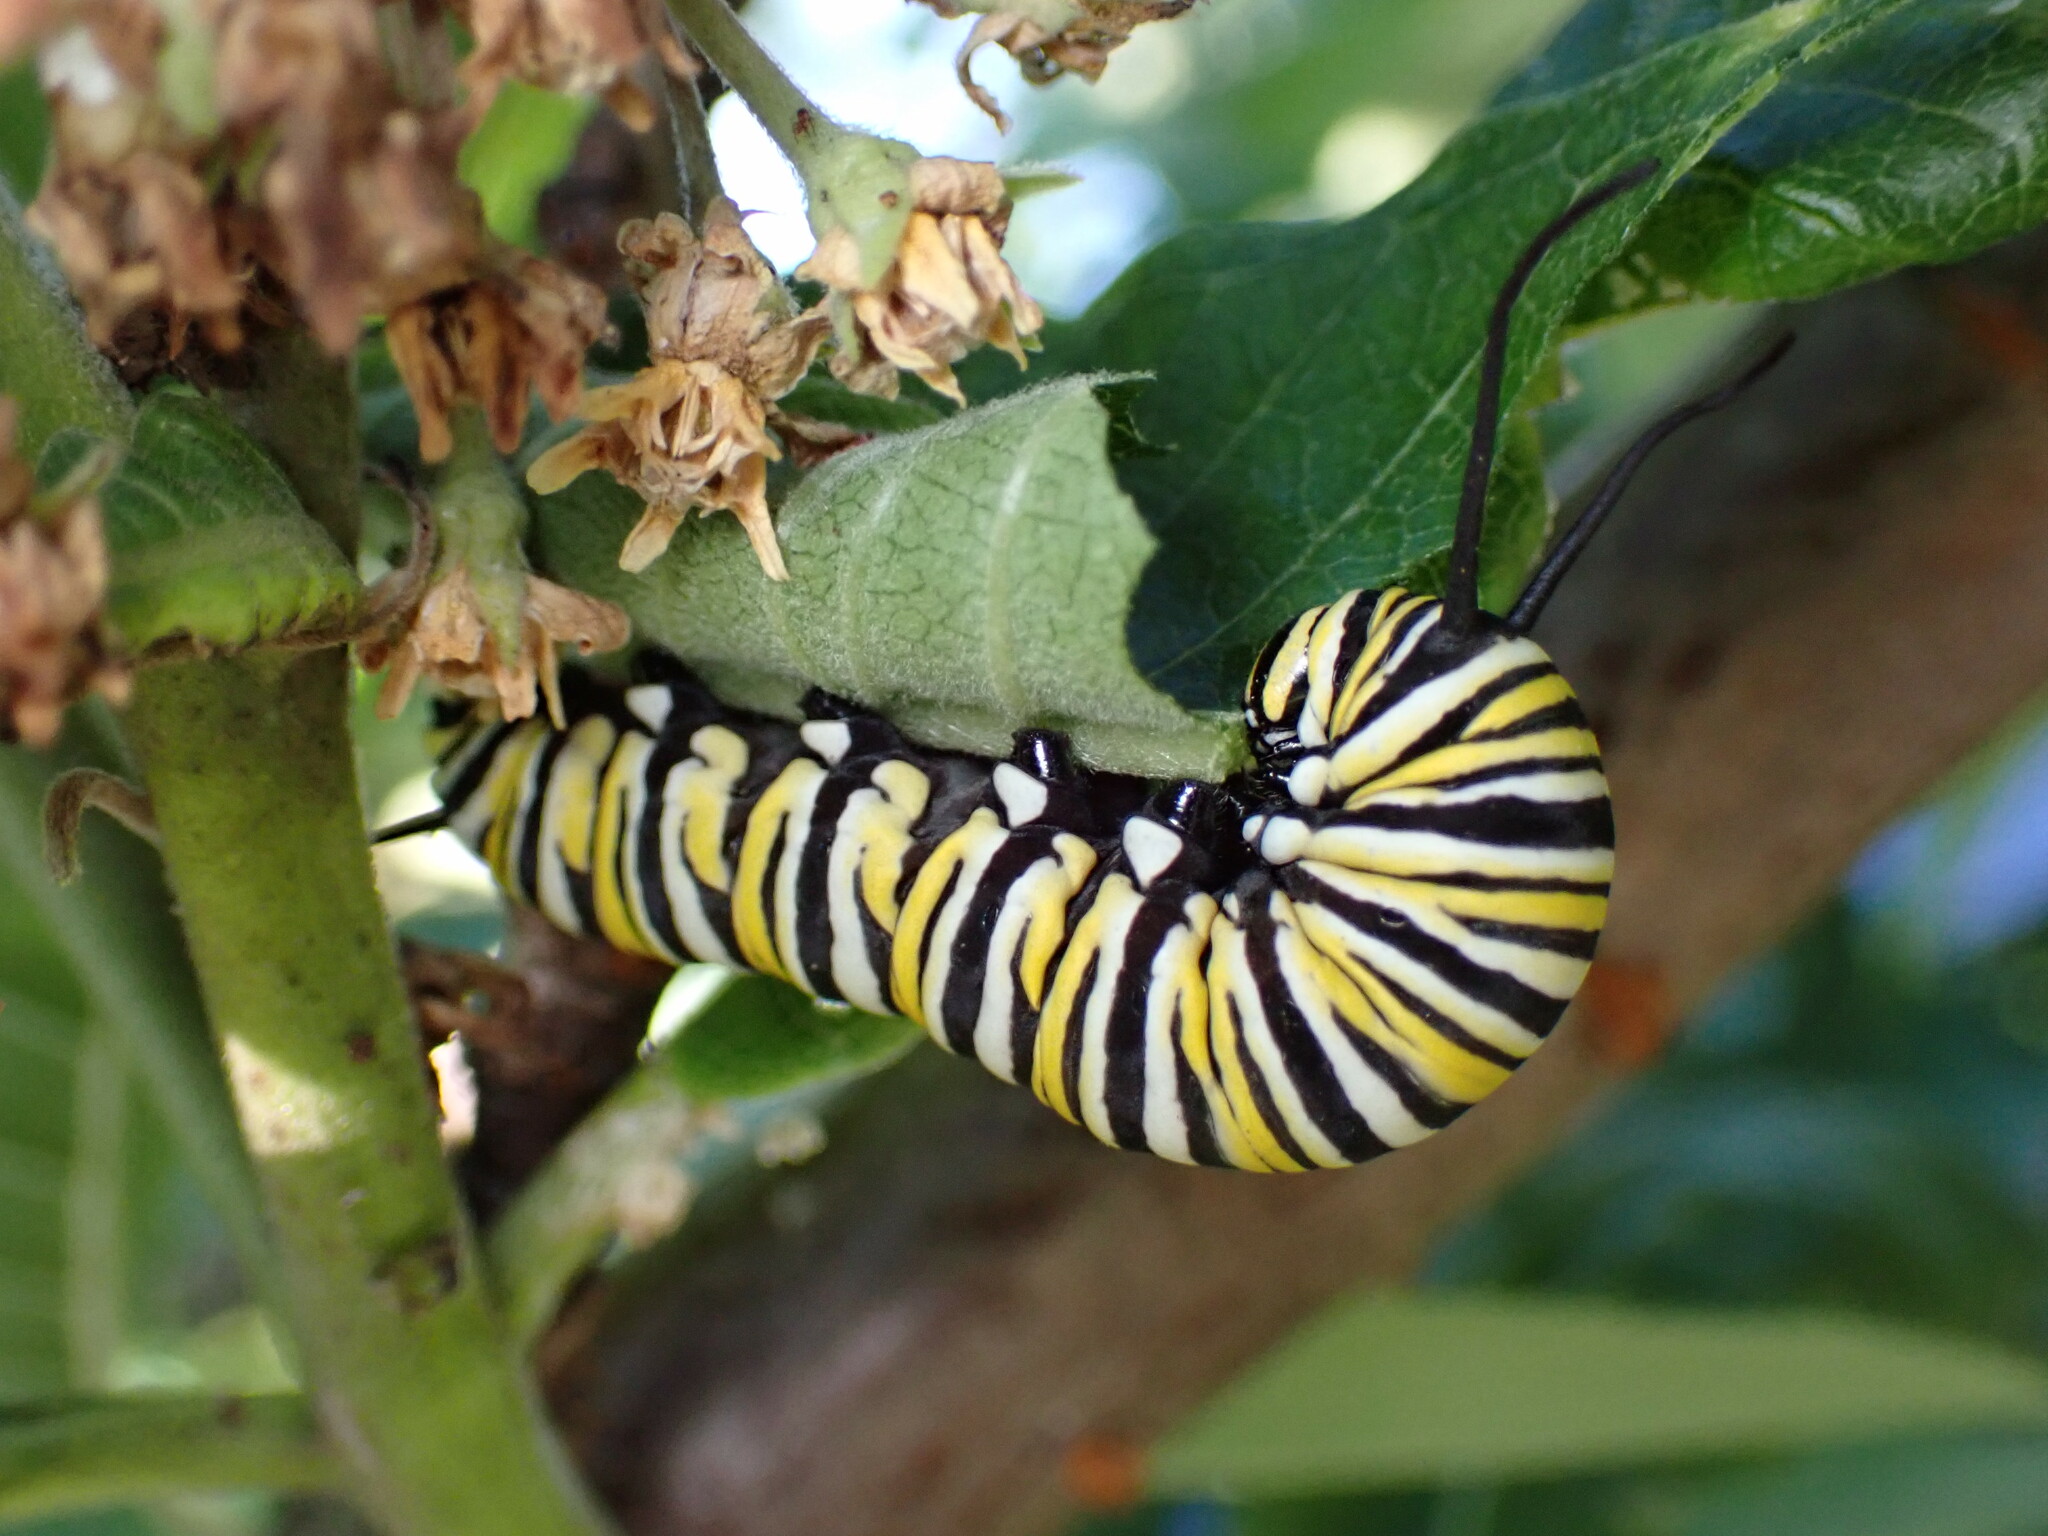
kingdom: Animalia
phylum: Arthropoda
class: Insecta
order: Lepidoptera
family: Nymphalidae
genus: Danaus
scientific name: Danaus plexippus
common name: Monarch
